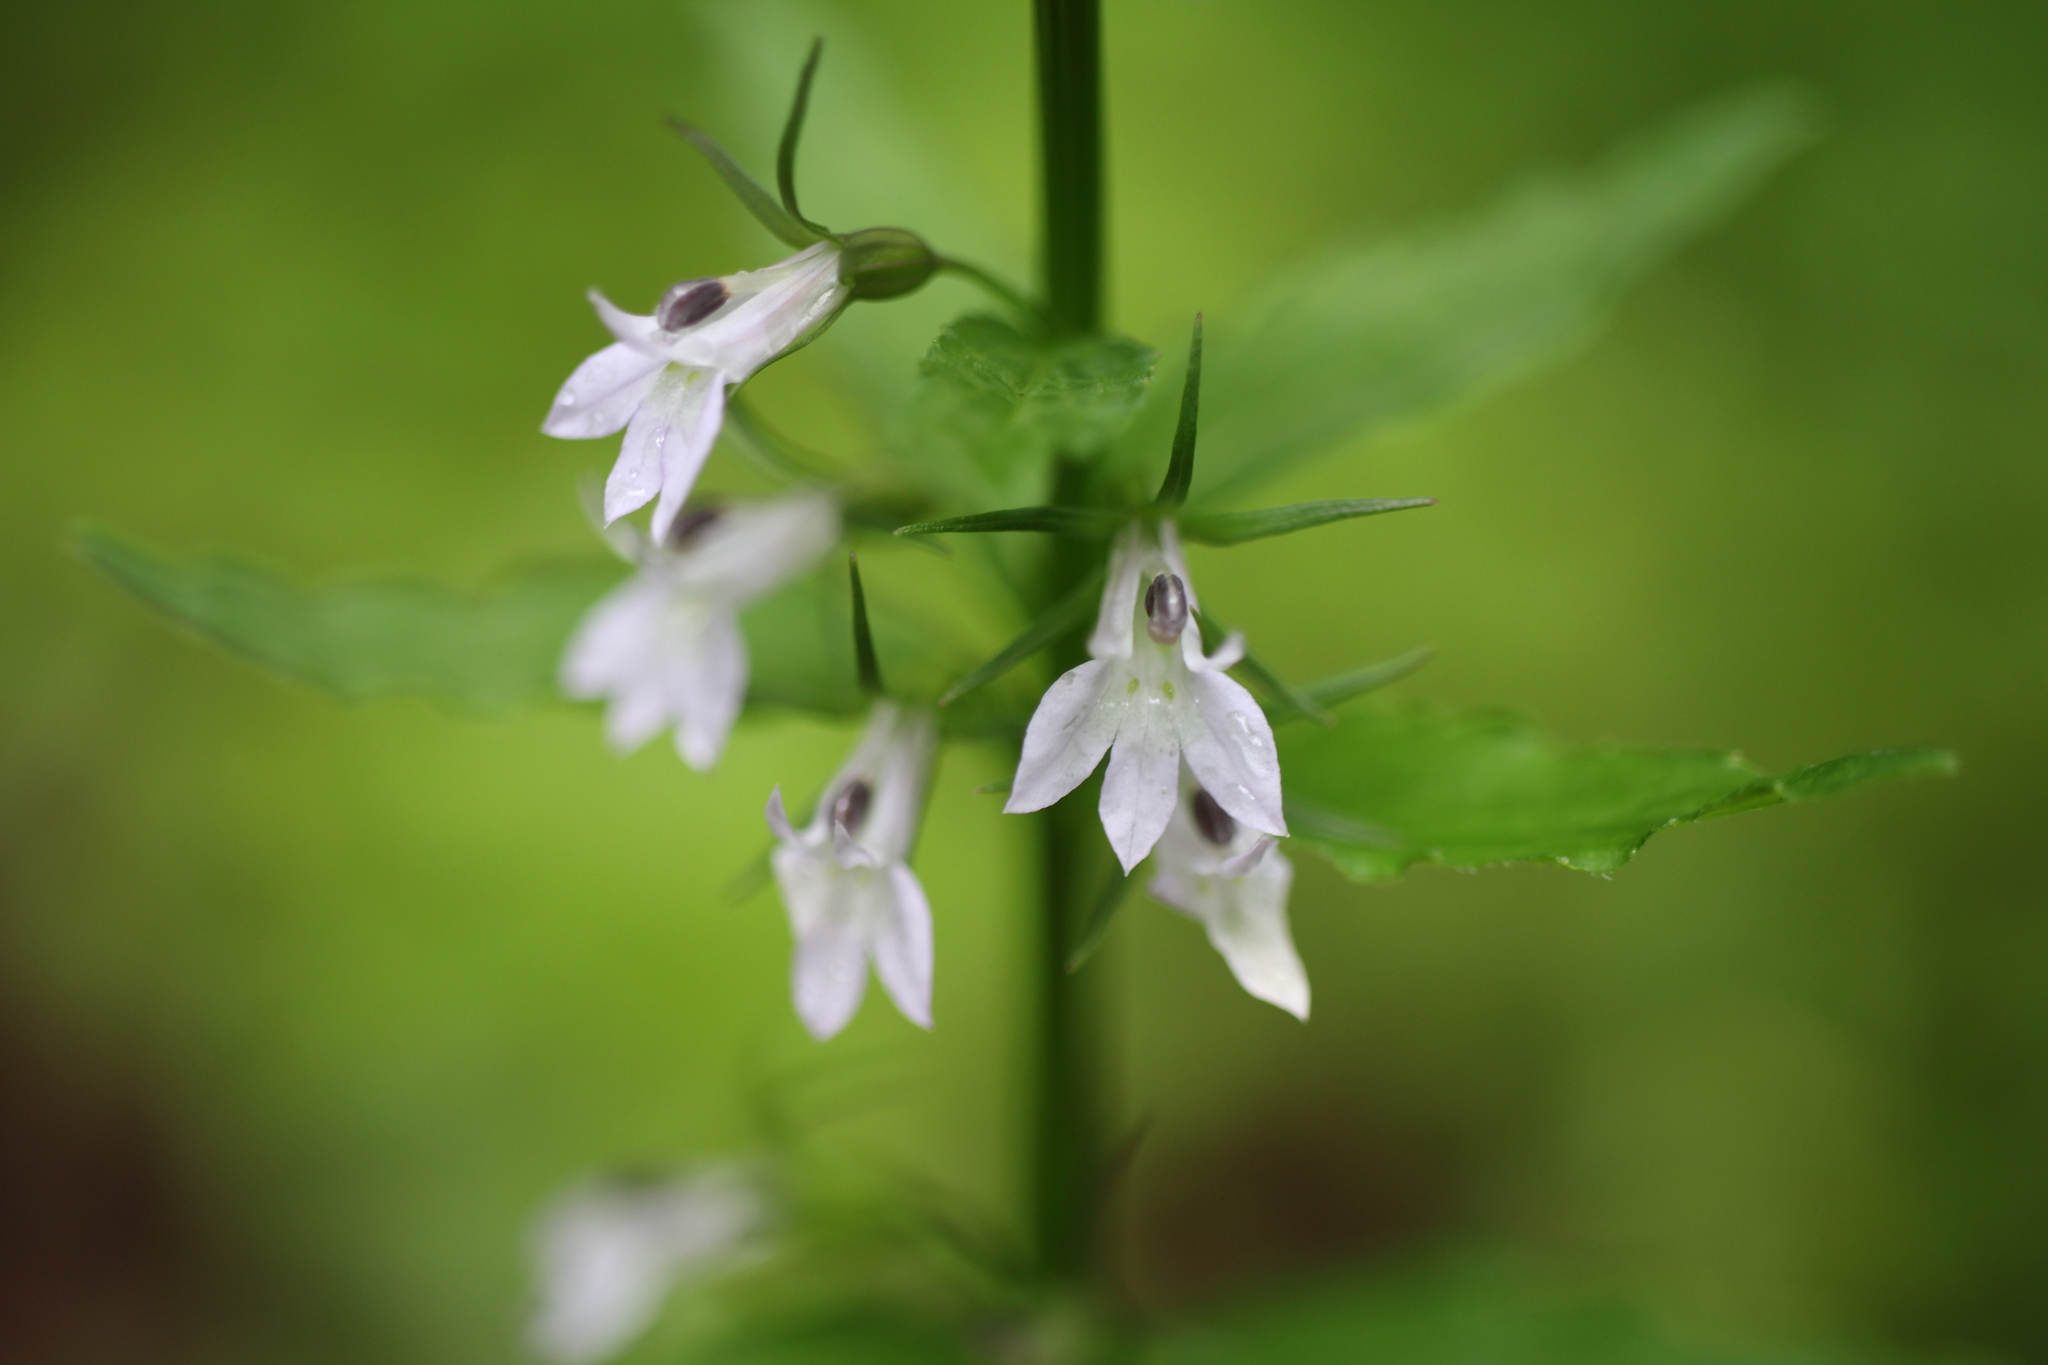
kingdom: Plantae
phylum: Tracheophyta
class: Magnoliopsida
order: Asterales
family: Campanulaceae
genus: Lobelia
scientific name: Lobelia inflata
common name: Indian tobacco
